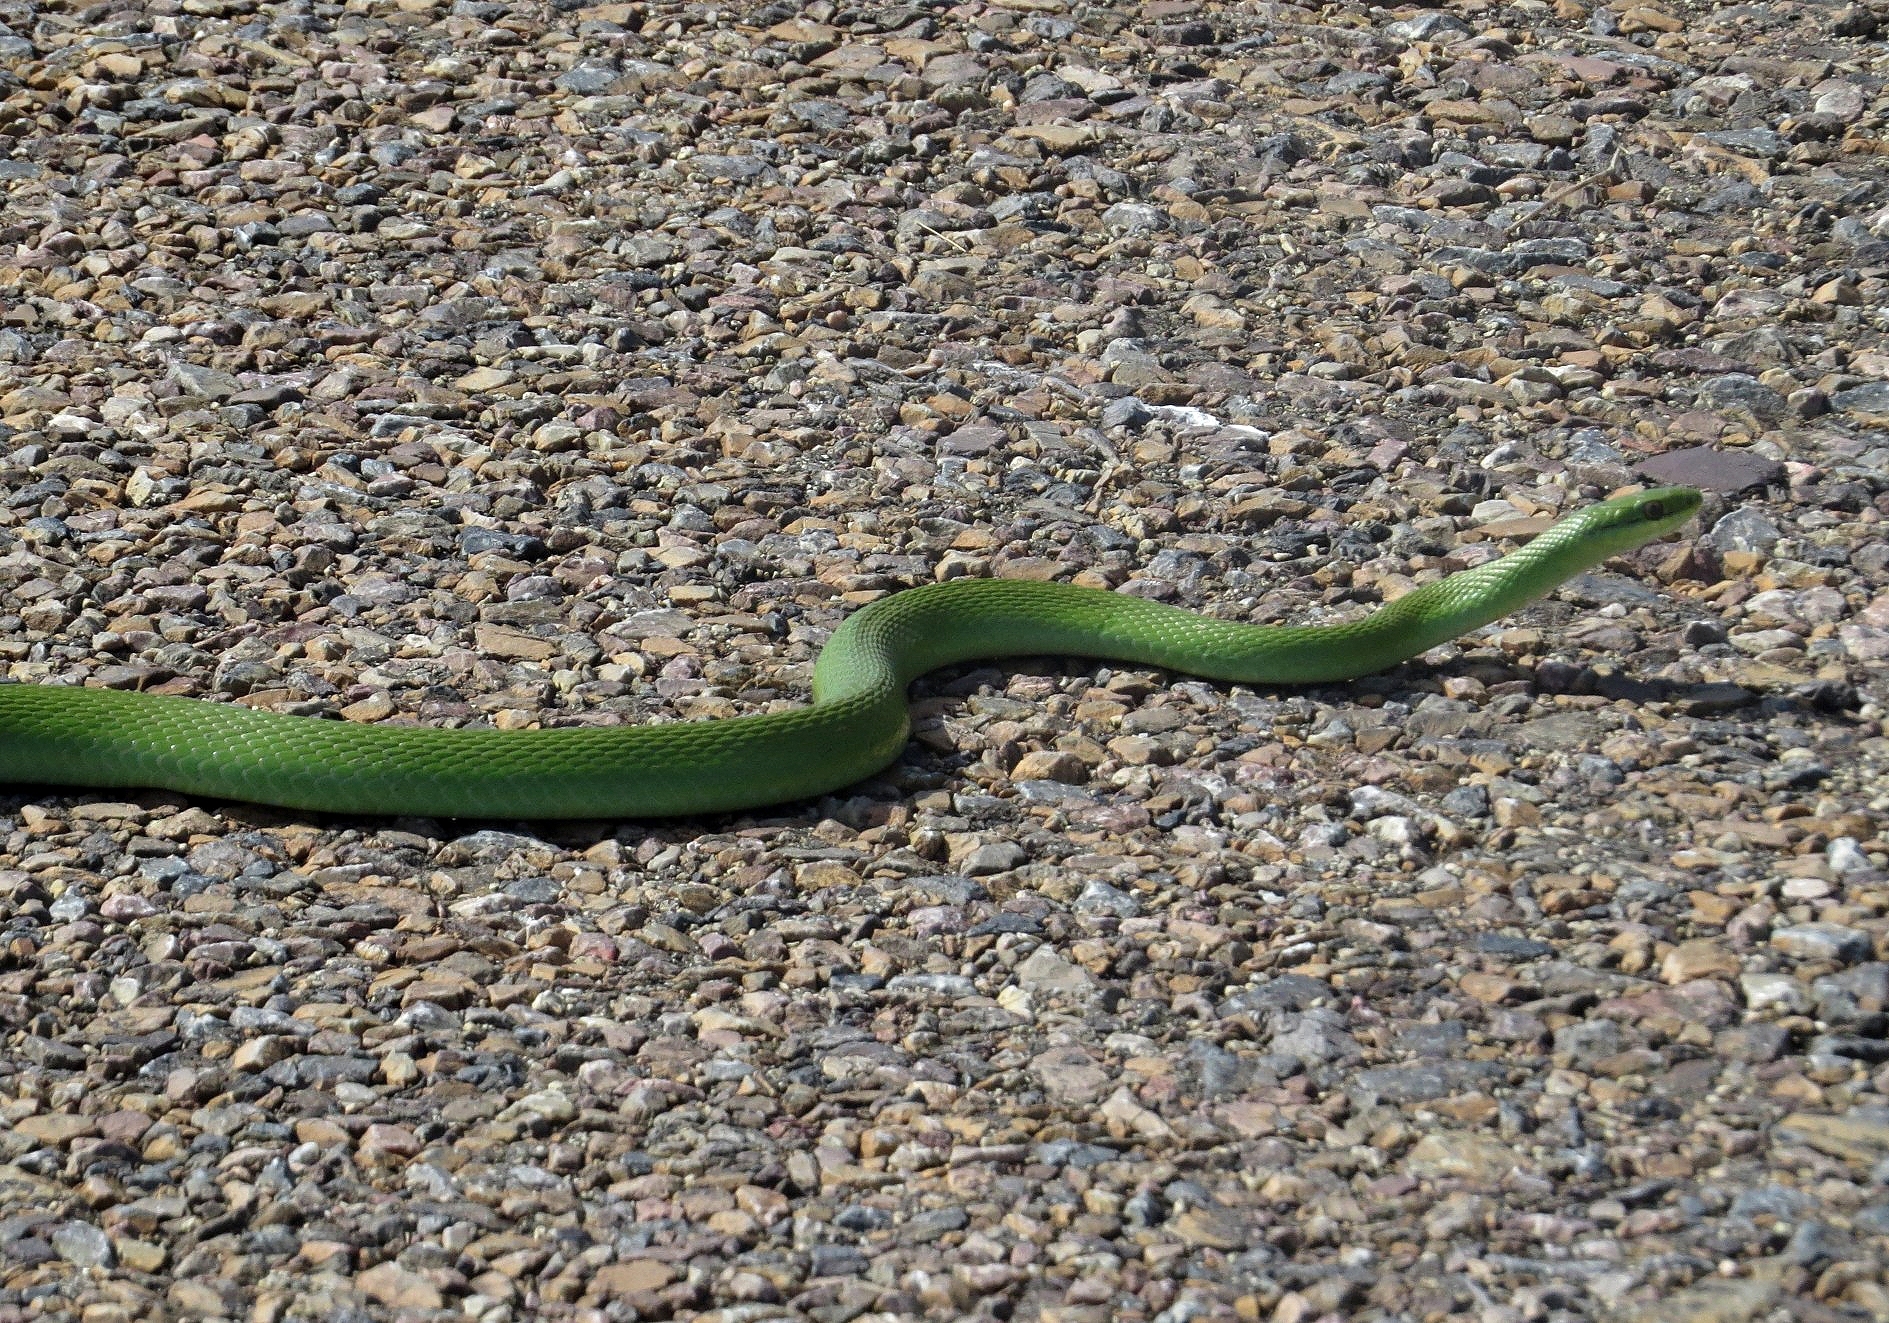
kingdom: Animalia
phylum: Chordata
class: Squamata
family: Colubridae
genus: Philodryas
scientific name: Philodryas aestiva
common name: Brazilian green racer
